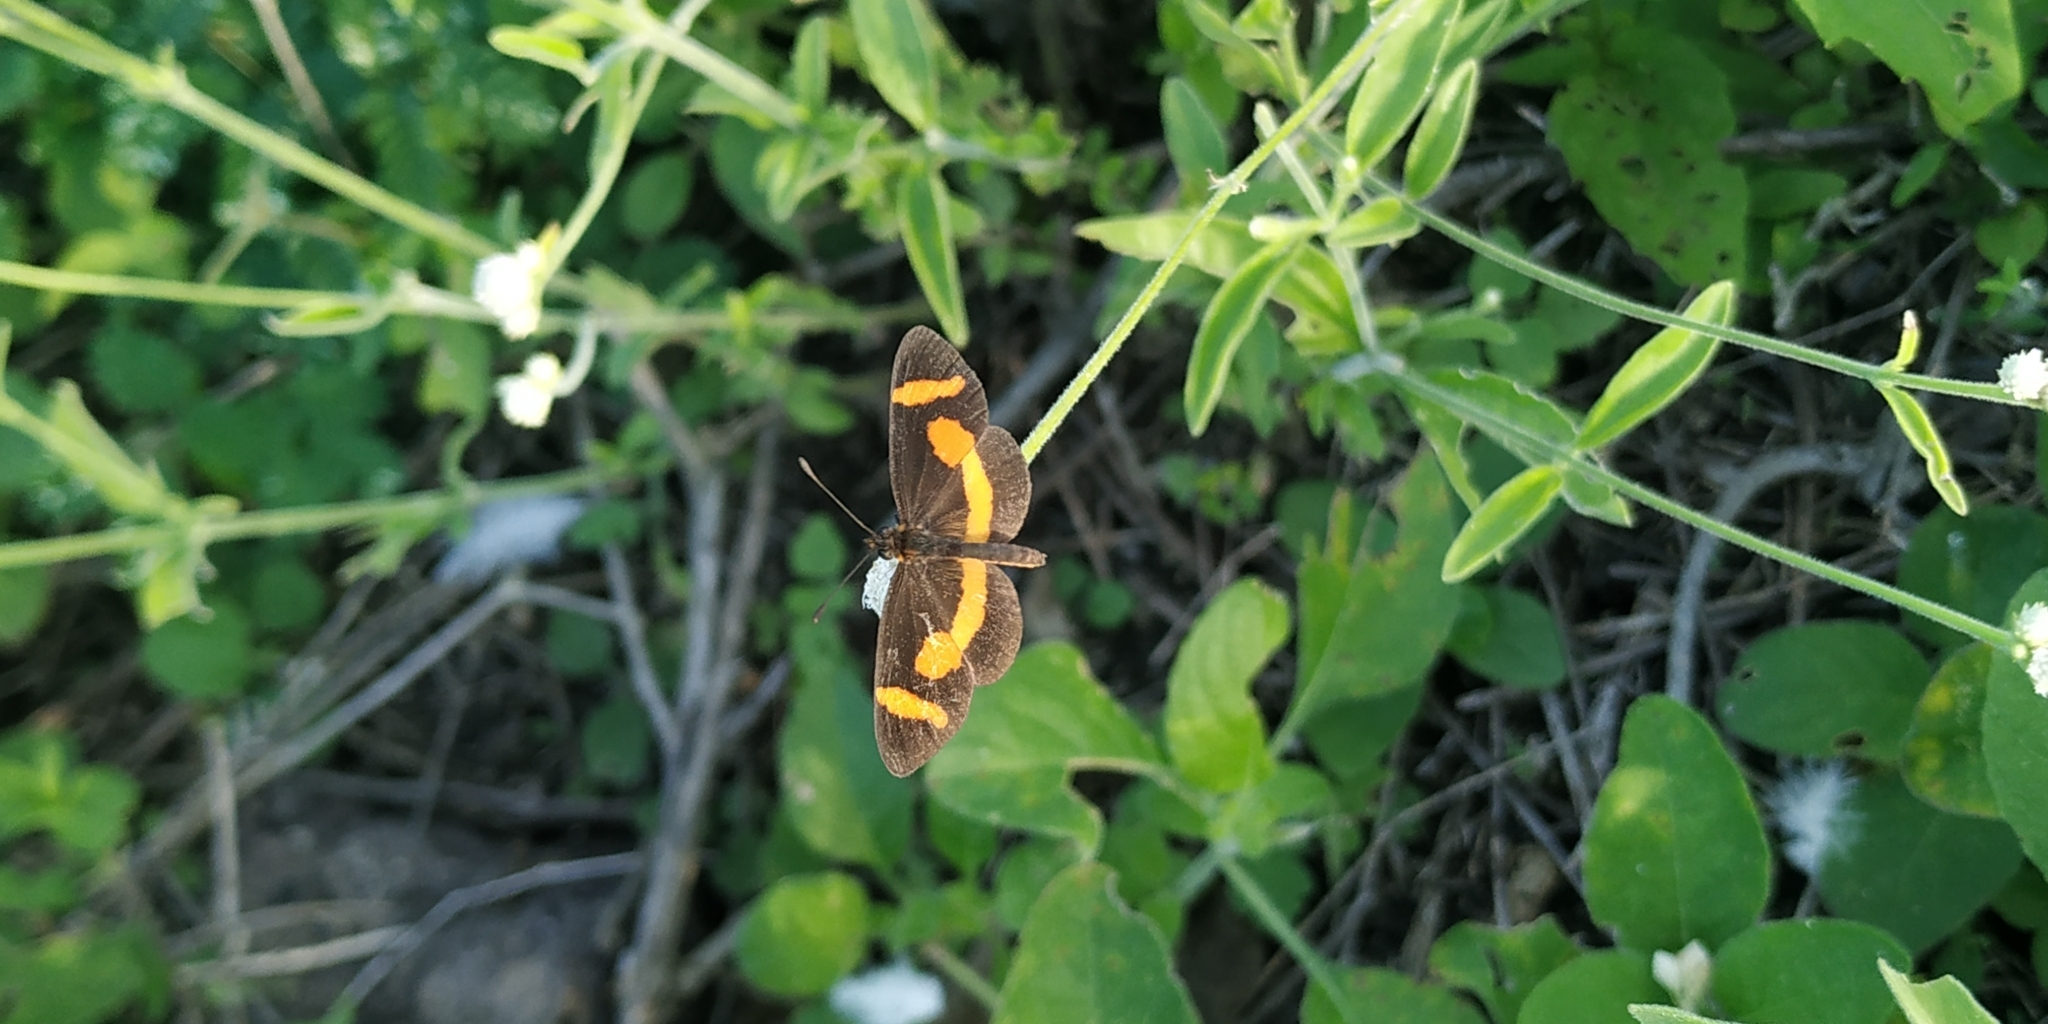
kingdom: Animalia
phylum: Arthropoda
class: Insecta
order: Lepidoptera
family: Nymphalidae
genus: Microtia
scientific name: Microtia elva
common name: Elf
